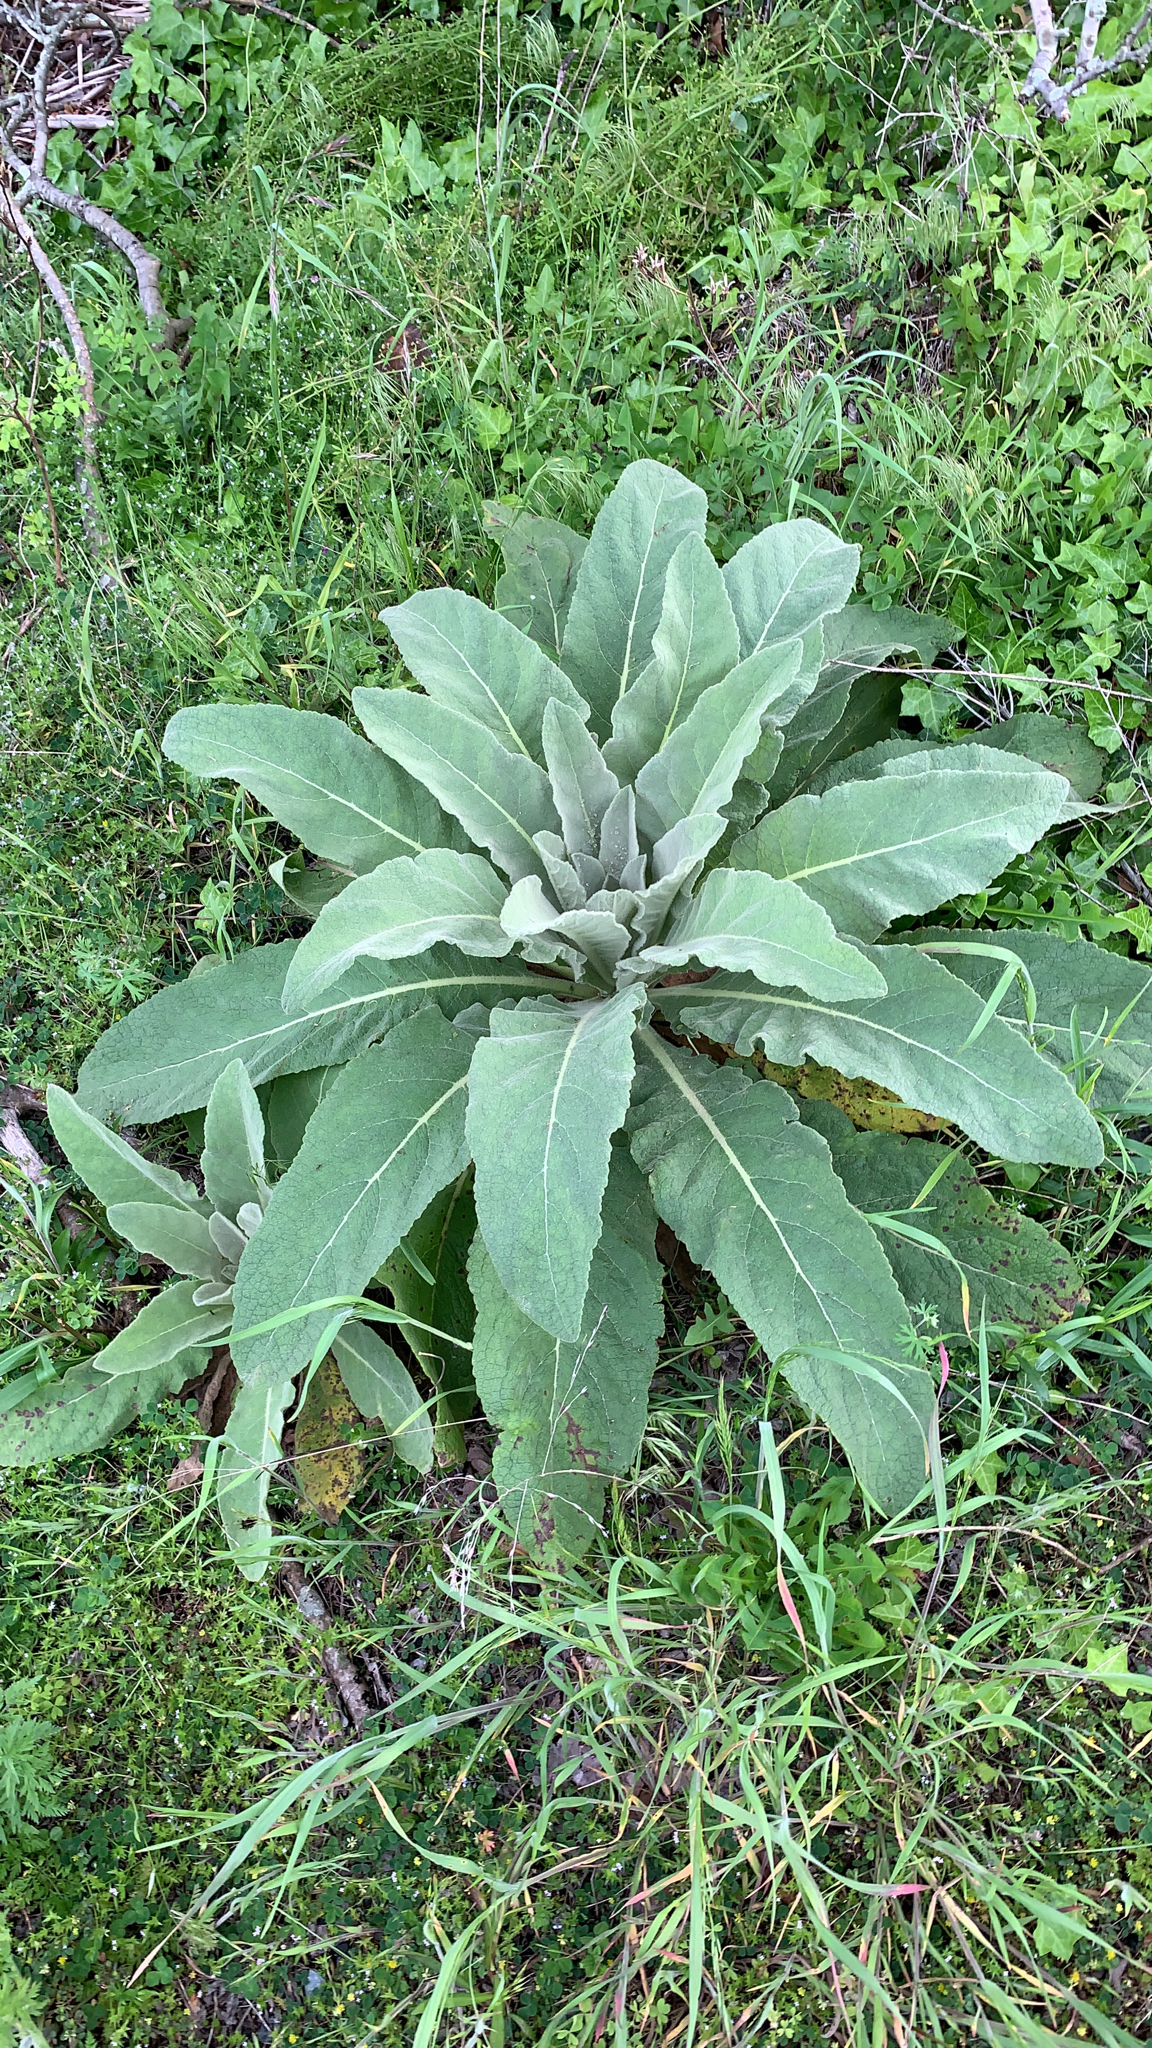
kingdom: Plantae
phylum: Tracheophyta
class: Magnoliopsida
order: Lamiales
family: Scrophulariaceae
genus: Verbascum
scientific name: Verbascum thapsus
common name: Common mullein
